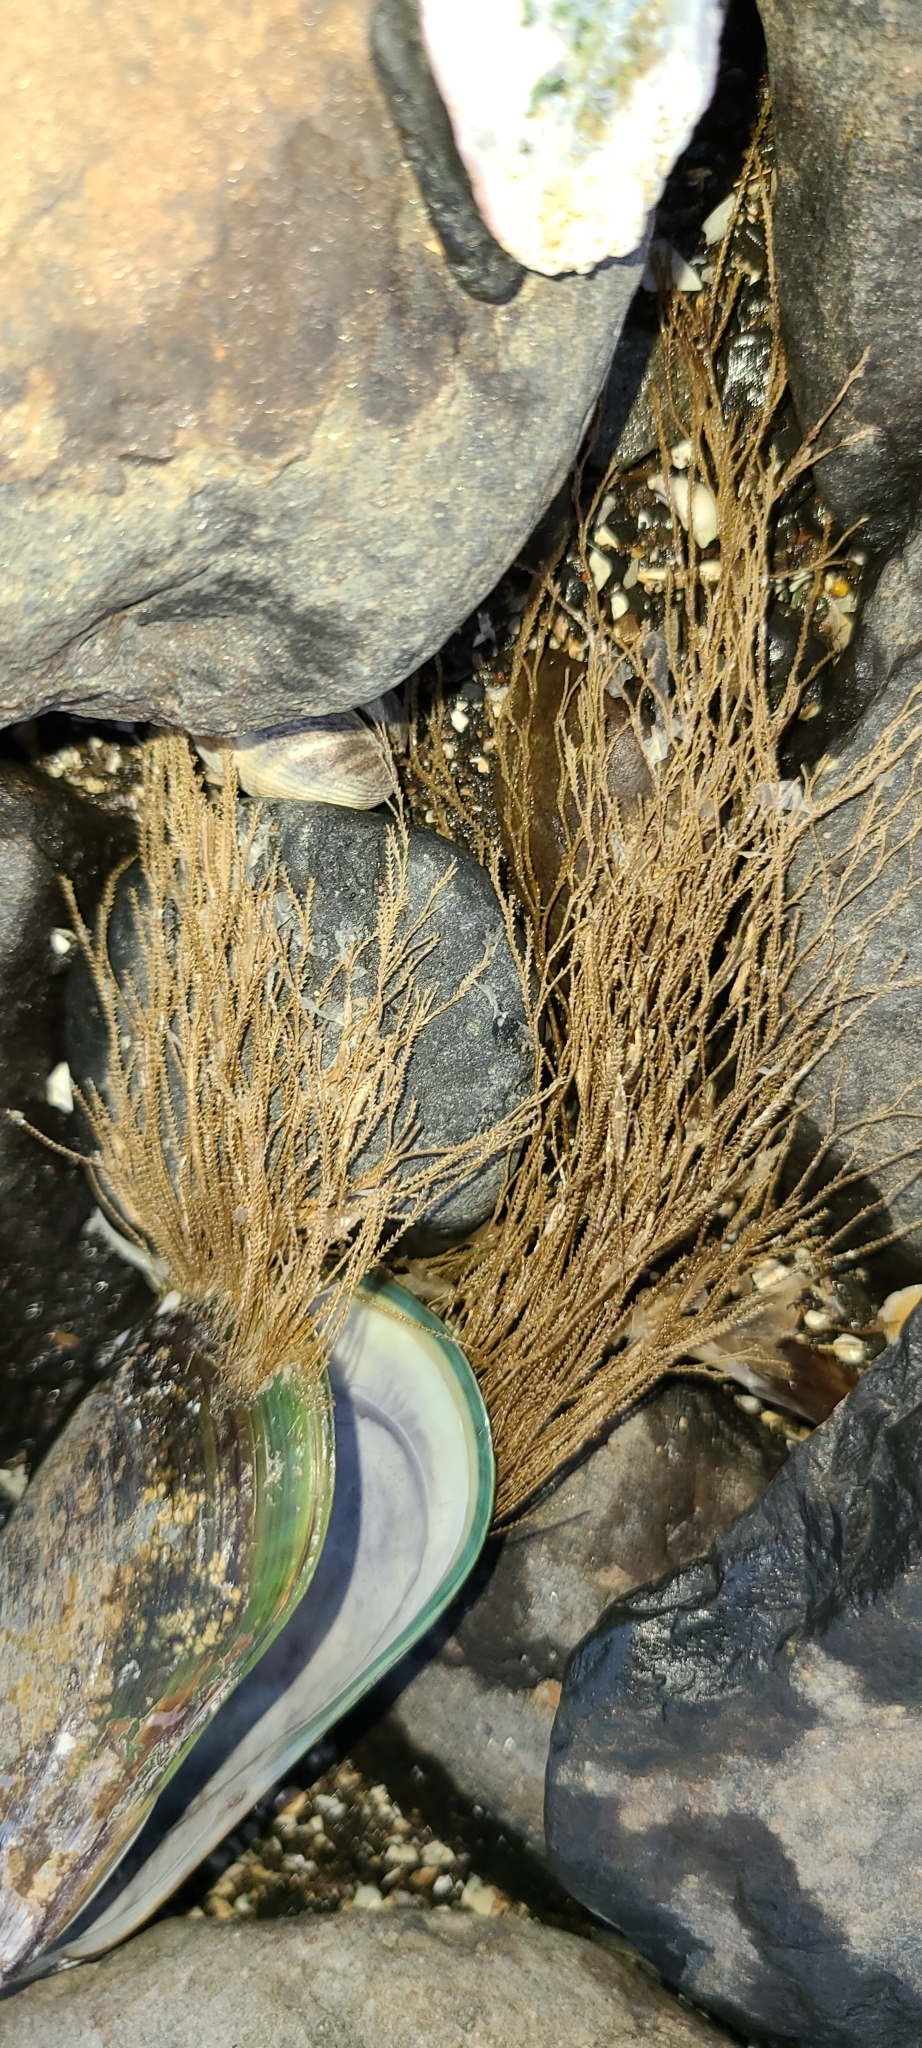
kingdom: Animalia
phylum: Cnidaria
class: Hydrozoa
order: Leptothecata
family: Sertulariidae
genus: Amphisbetia
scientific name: Amphisbetia bispinosa
